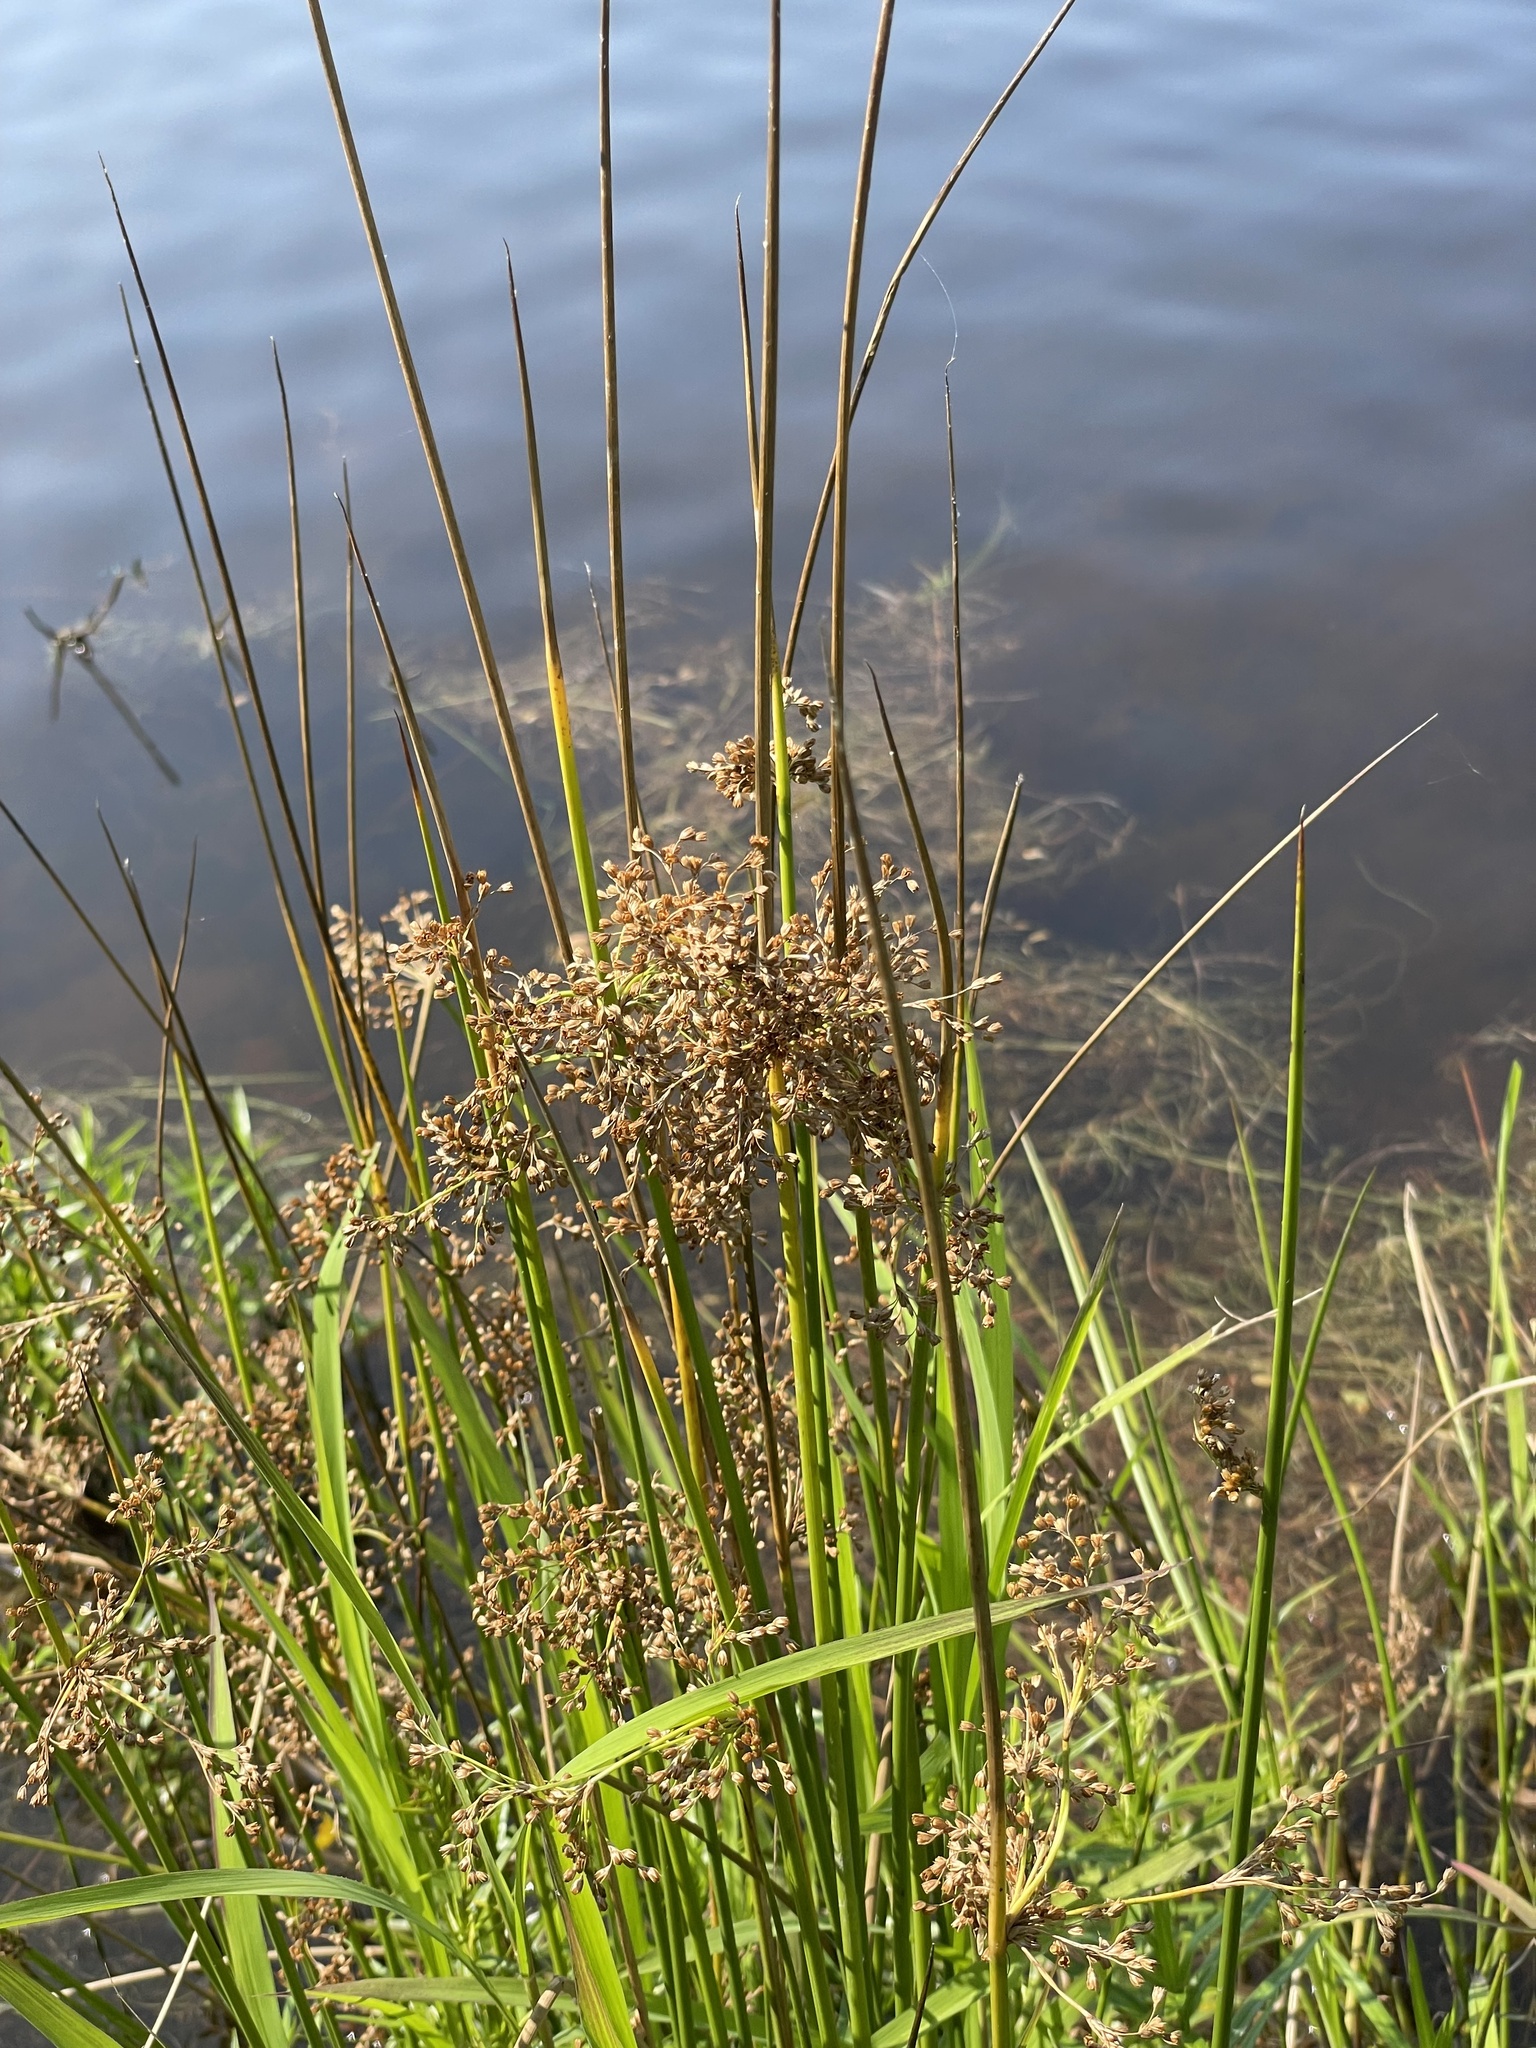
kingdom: Plantae
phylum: Tracheophyta
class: Liliopsida
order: Poales
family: Juncaceae
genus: Juncus
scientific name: Juncus effusus
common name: Soft rush
